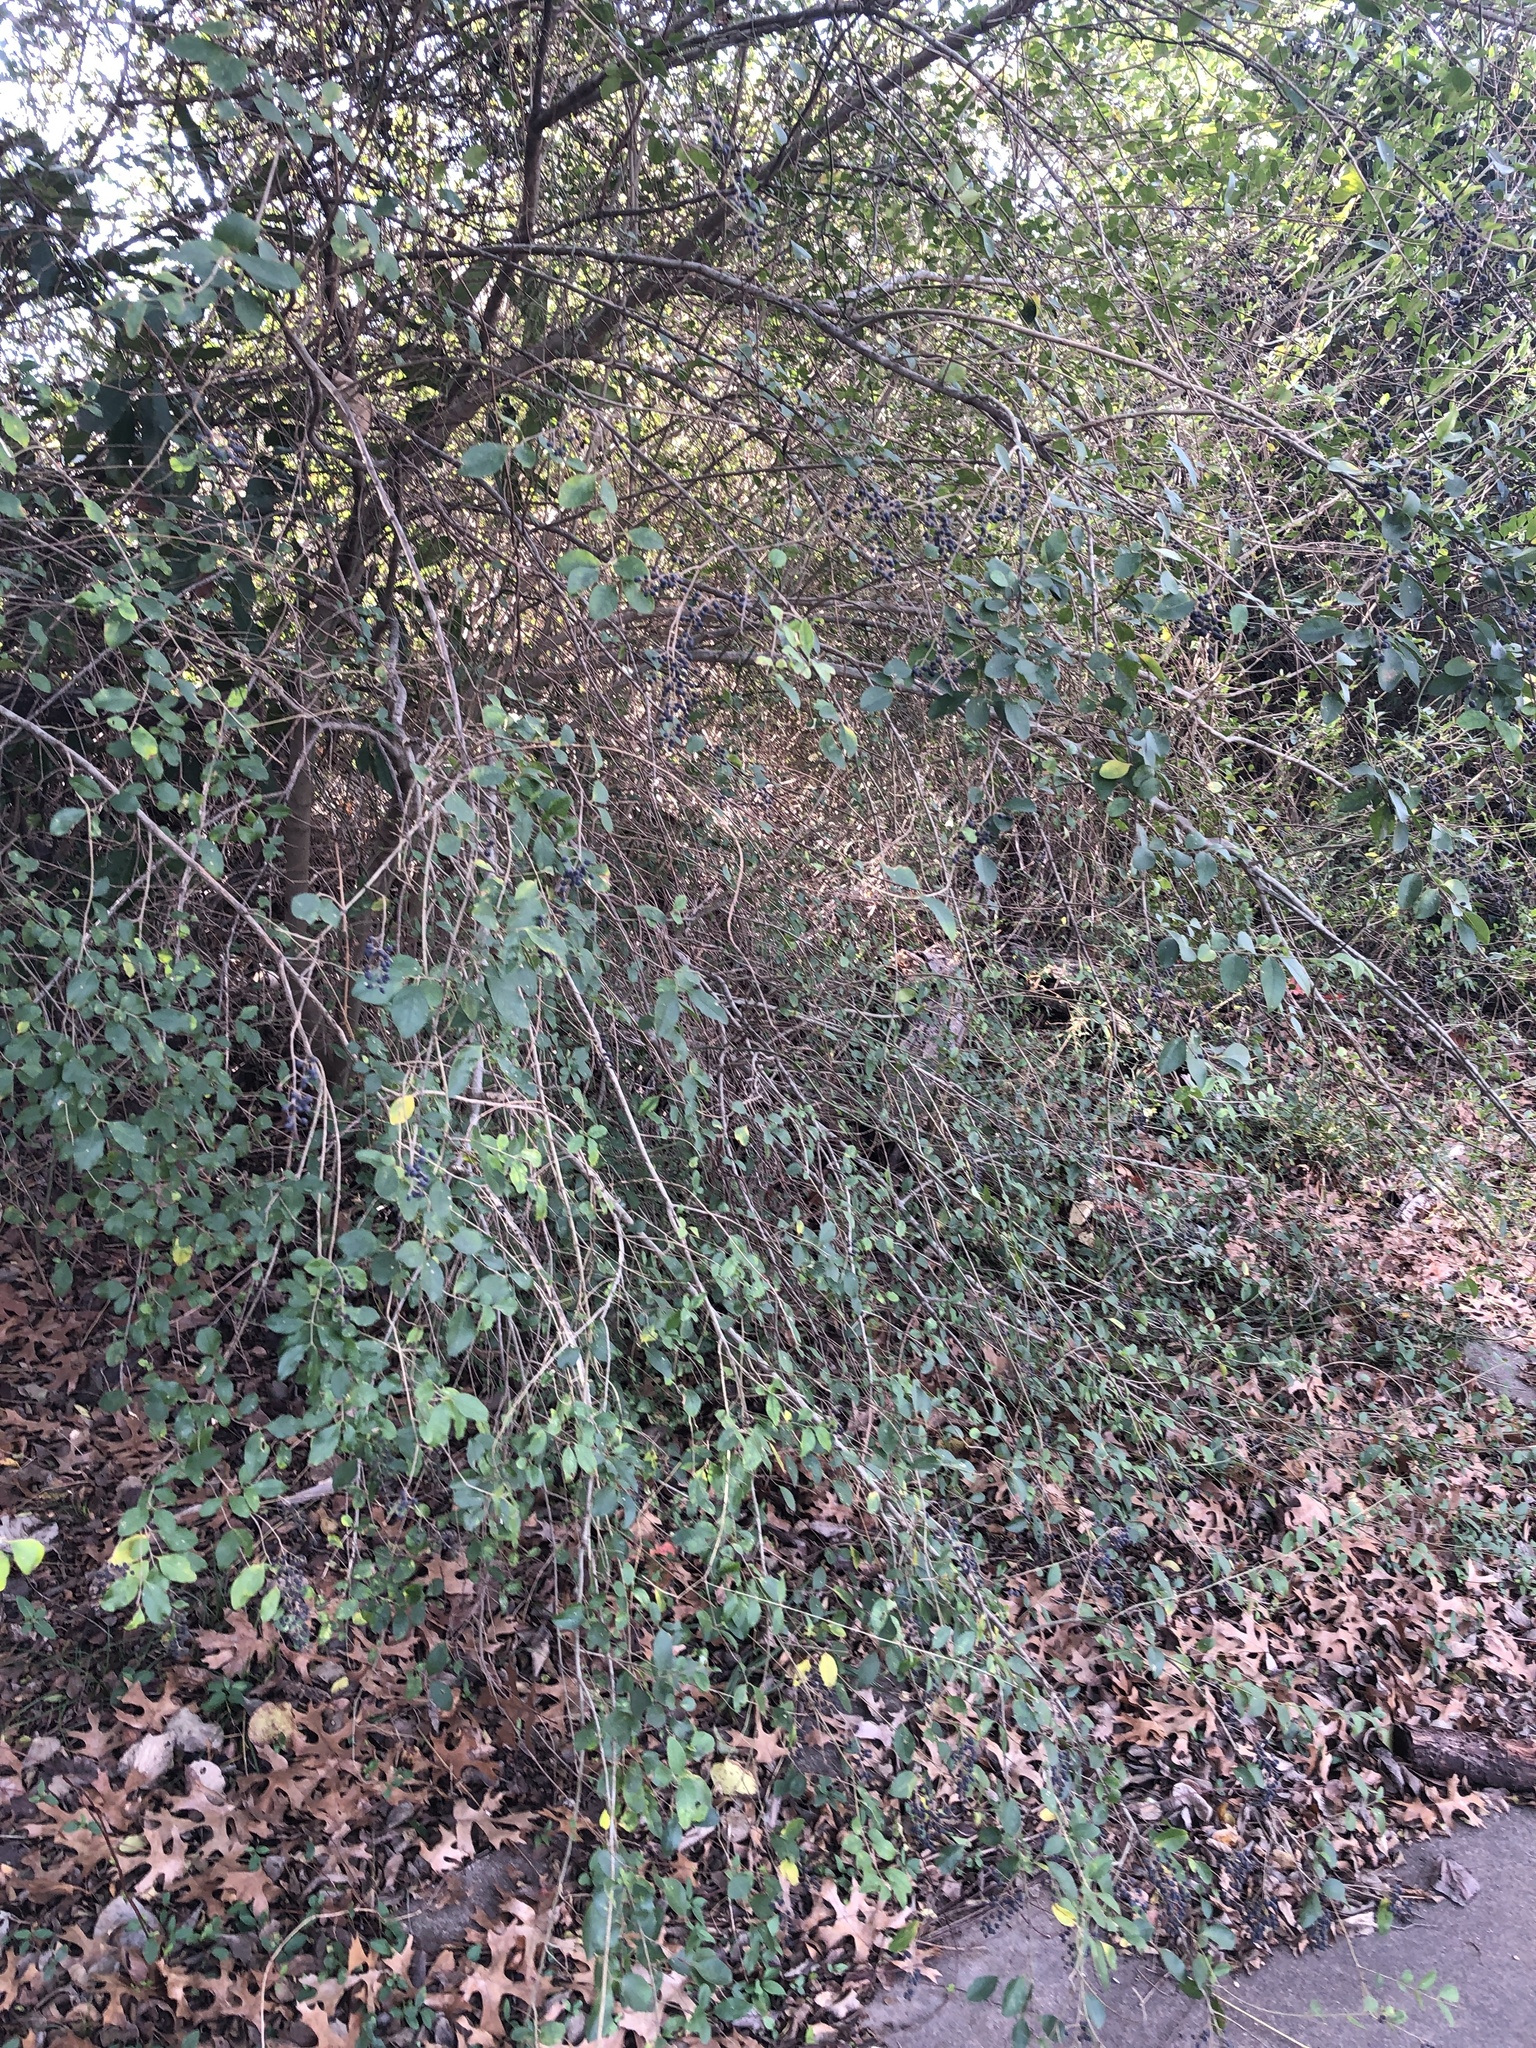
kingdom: Plantae
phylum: Tracheophyta
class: Magnoliopsida
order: Lamiales
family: Oleaceae
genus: Ligustrum
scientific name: Ligustrum sinense
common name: Chinese privet
